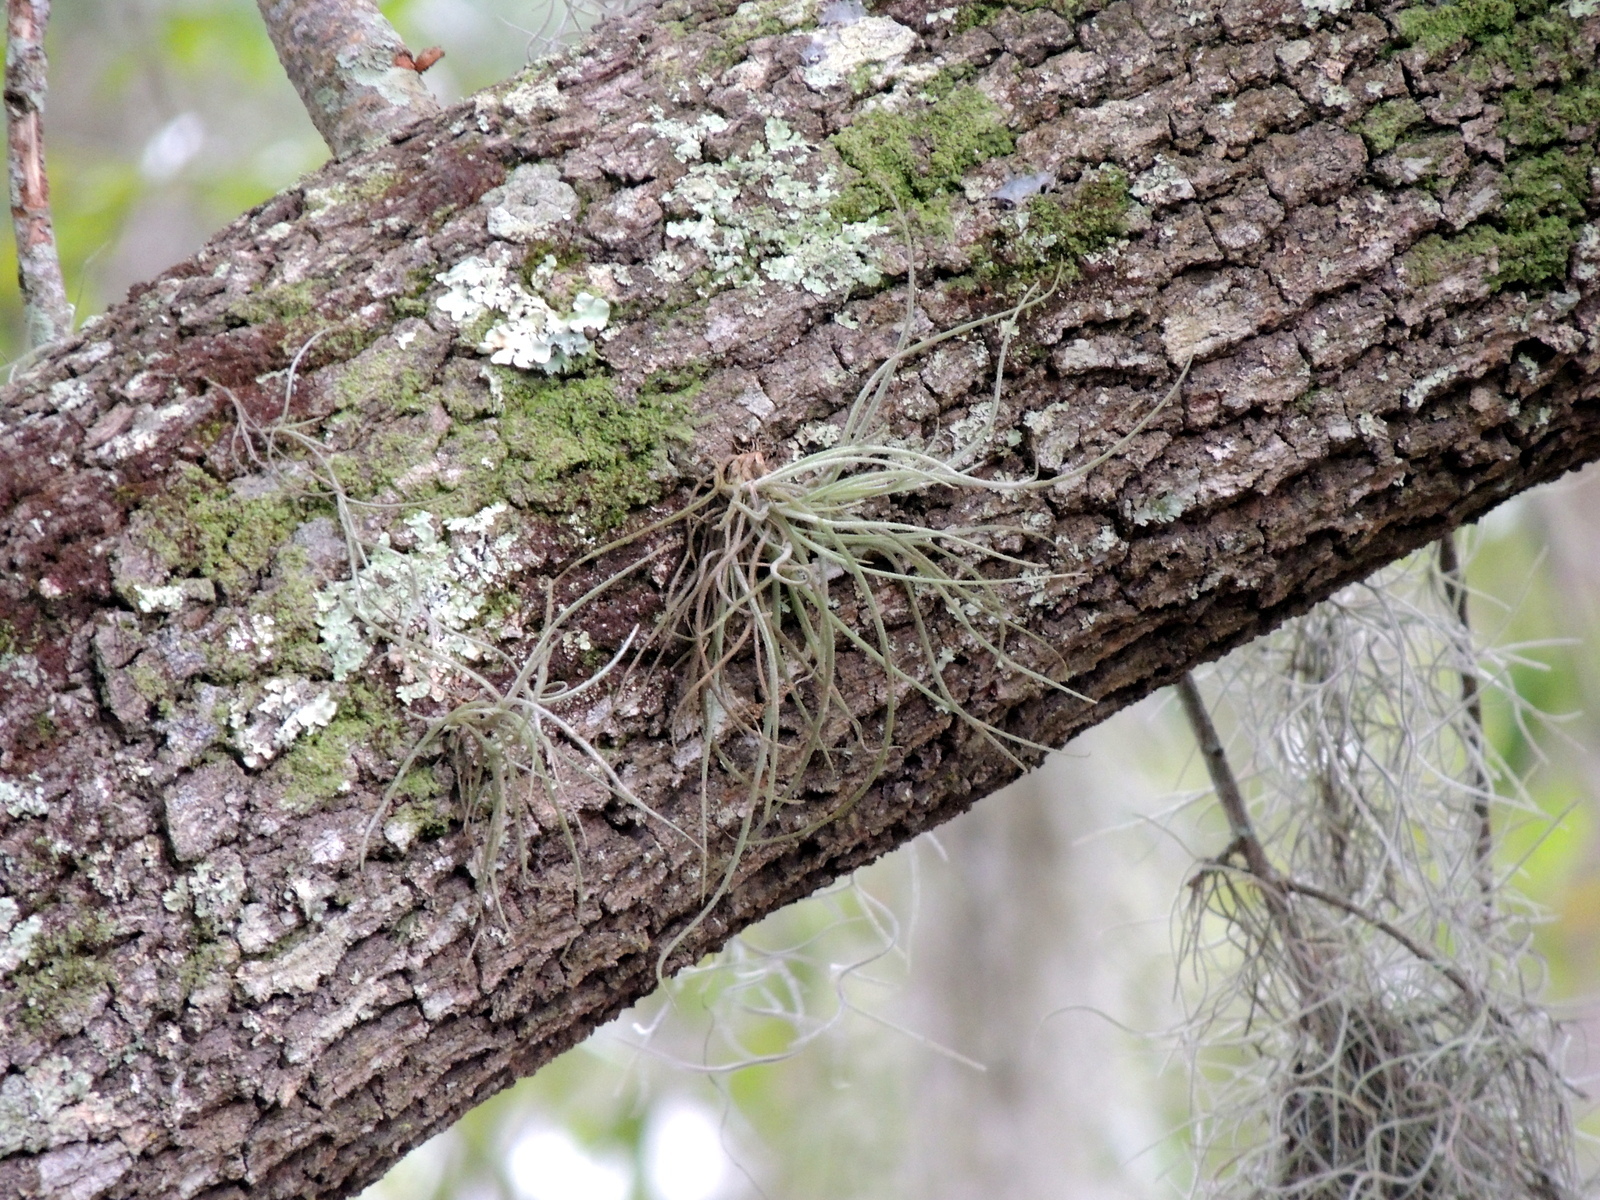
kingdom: Plantae
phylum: Tracheophyta
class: Liliopsida
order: Poales
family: Bromeliaceae
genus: Tillandsia
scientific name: Tillandsia recurvata
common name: Small ballmoss
